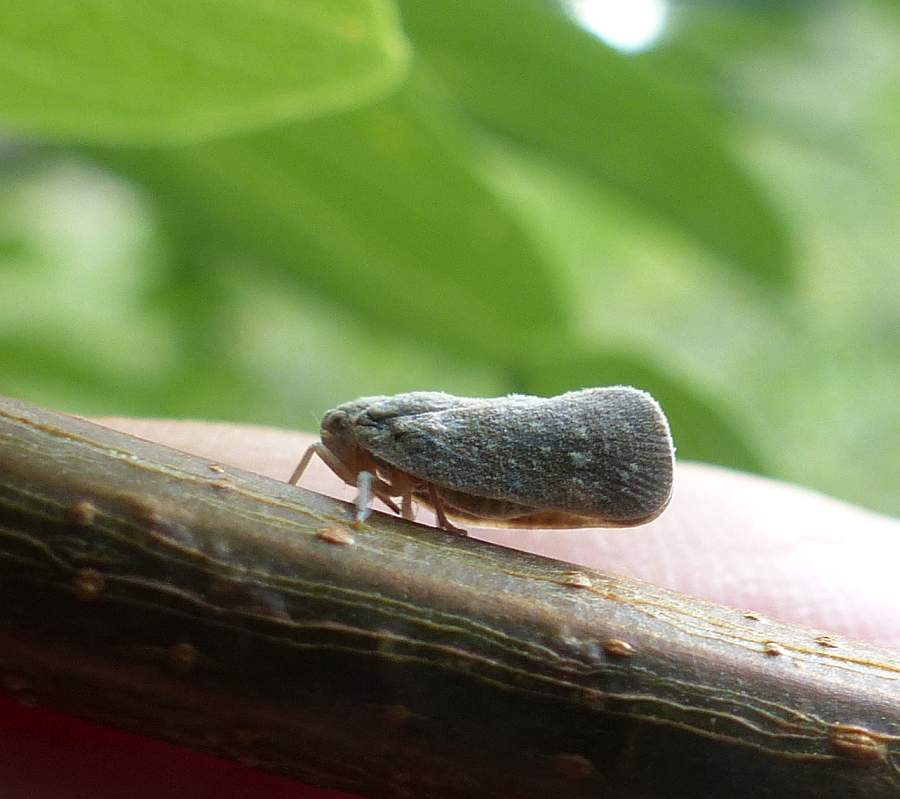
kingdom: Animalia
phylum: Arthropoda
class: Insecta
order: Hemiptera
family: Flatidae
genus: Metcalfa
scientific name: Metcalfa pruinosa
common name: Citrus flatid planthopper
